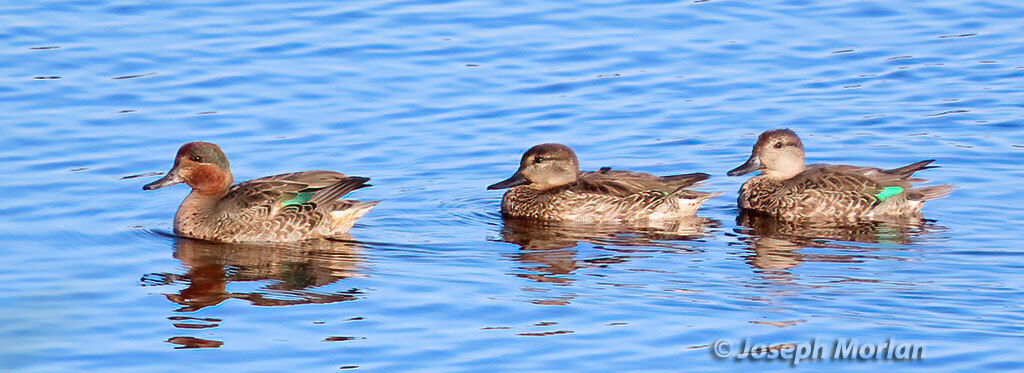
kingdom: Animalia
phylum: Chordata
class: Aves
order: Anseriformes
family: Anatidae
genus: Anas
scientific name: Anas crecca
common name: Eurasian teal
